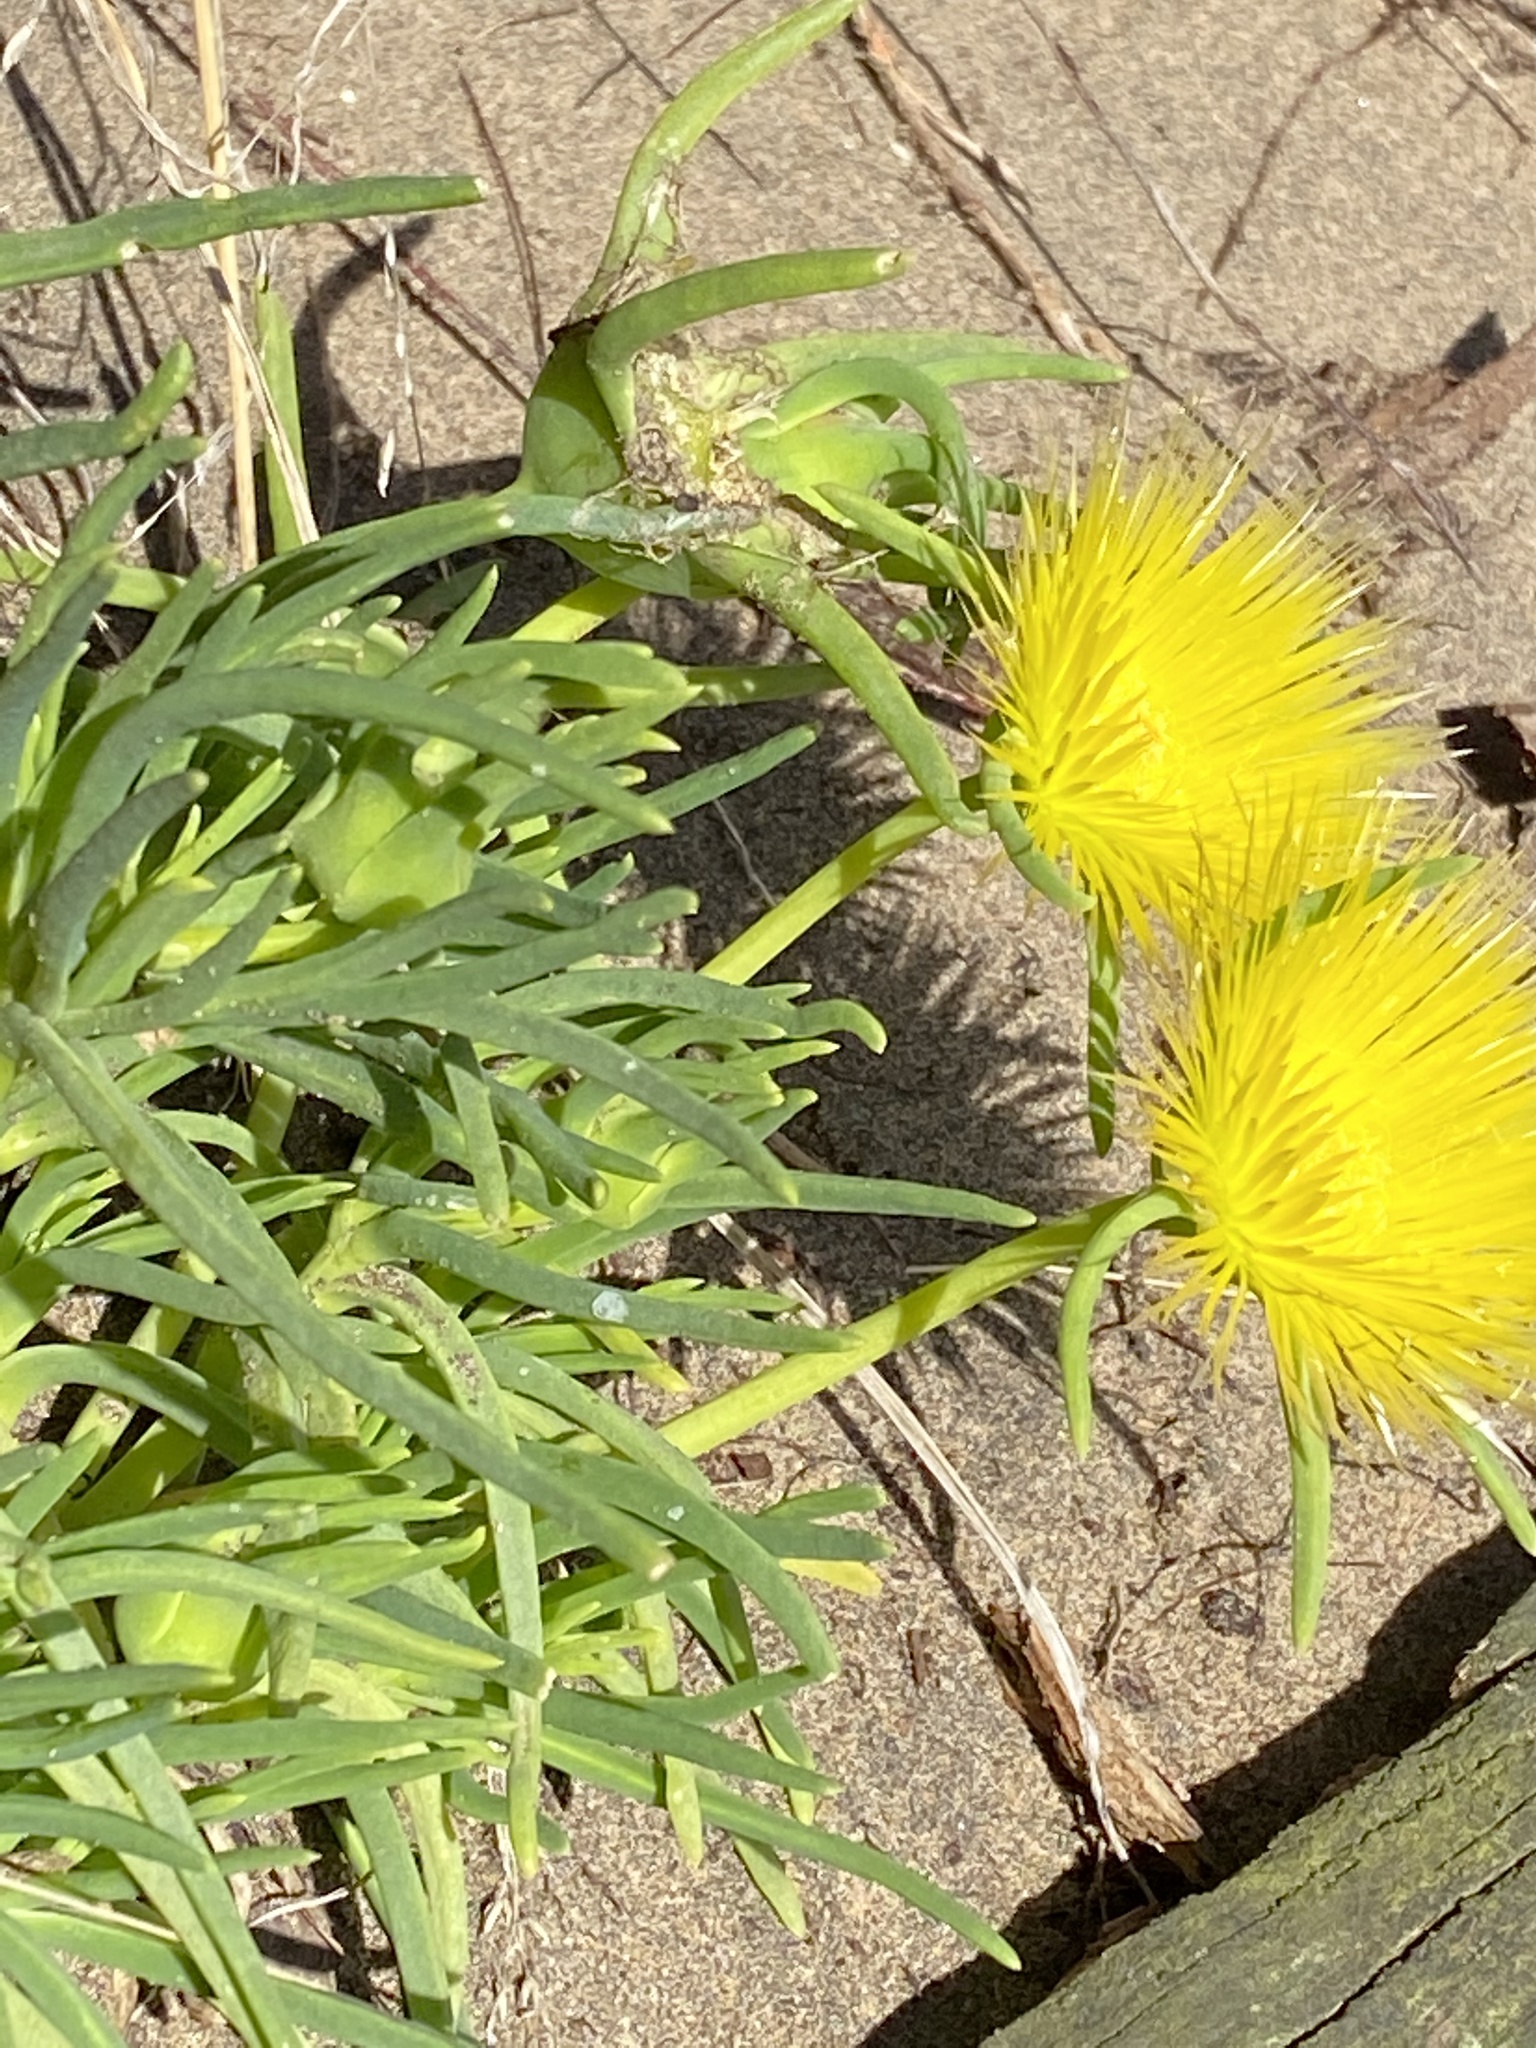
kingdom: Plantae
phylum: Tracheophyta
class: Magnoliopsida
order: Caryophyllales
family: Aizoaceae
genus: Conicosia
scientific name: Conicosia pugioniformis
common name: Narrow-leaved iceplant
